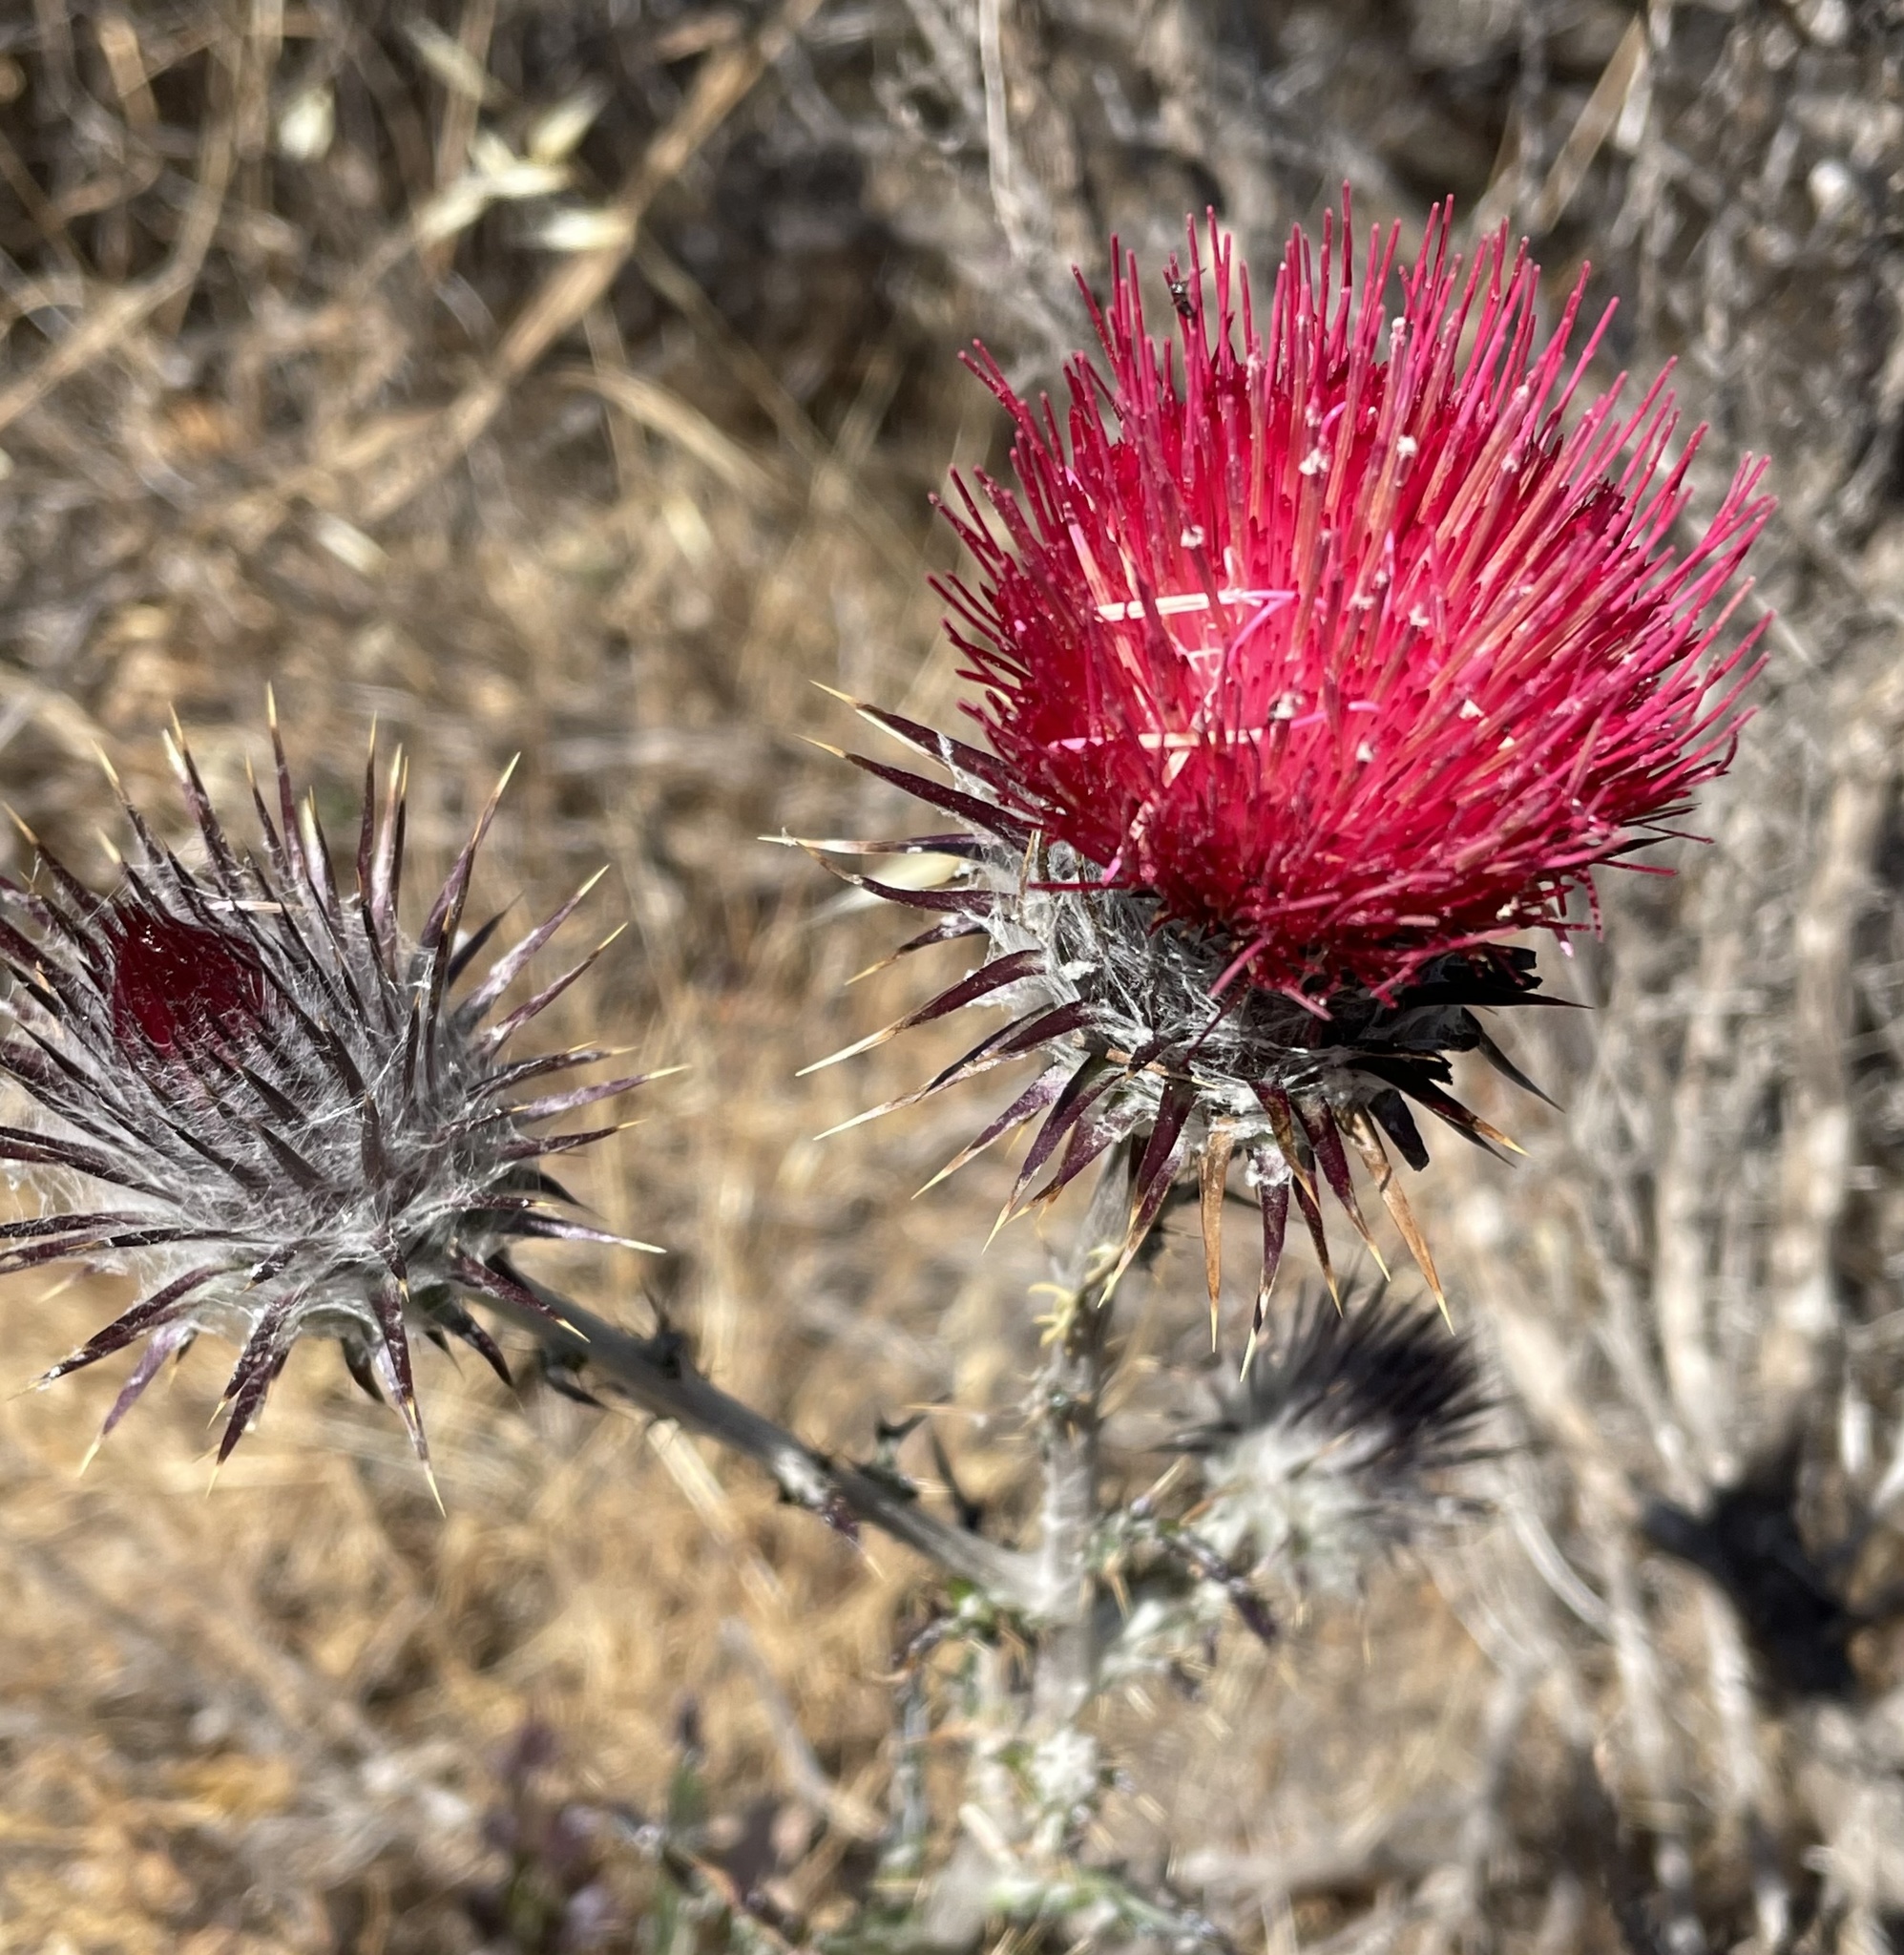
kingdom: Plantae
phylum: Tracheophyta
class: Magnoliopsida
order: Asterales
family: Asteraceae
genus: Cirsium
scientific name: Cirsium occidentale
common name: Western thistle
